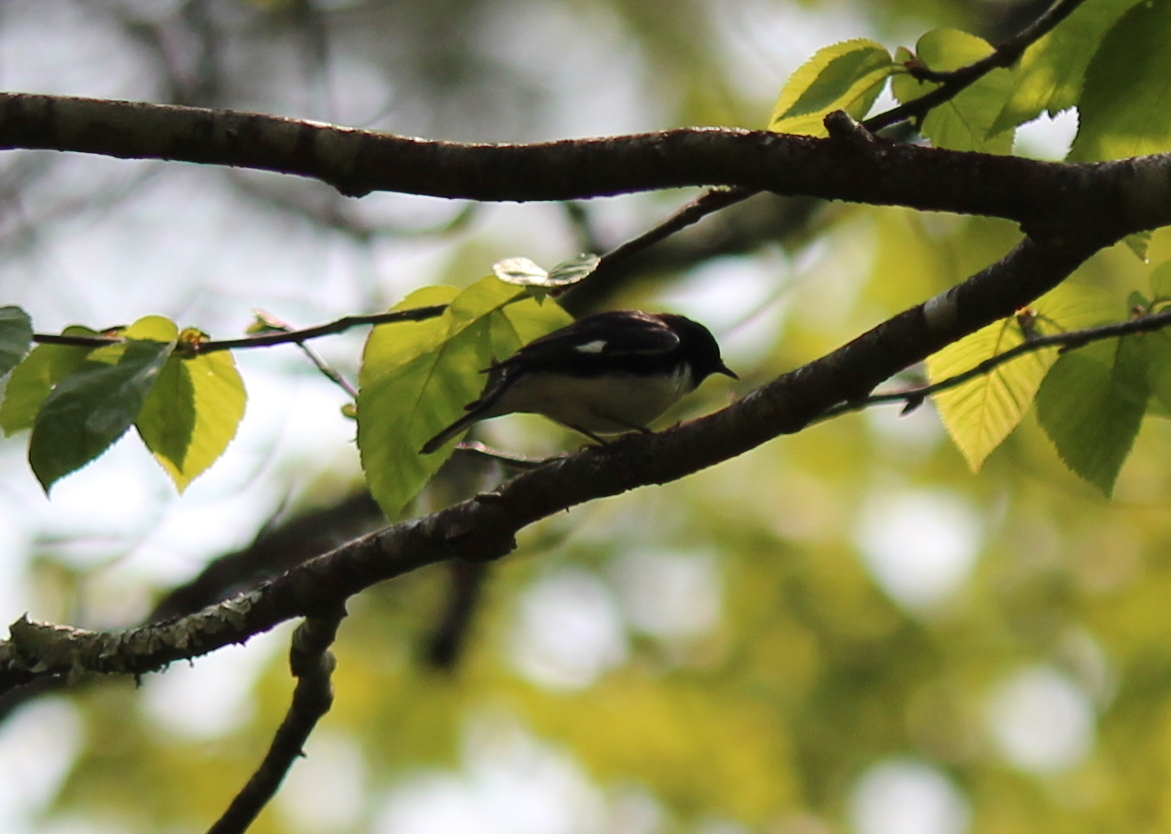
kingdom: Animalia
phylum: Chordata
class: Aves
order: Passeriformes
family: Parulidae
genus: Setophaga
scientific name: Setophaga caerulescens
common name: Black-throated blue warbler
